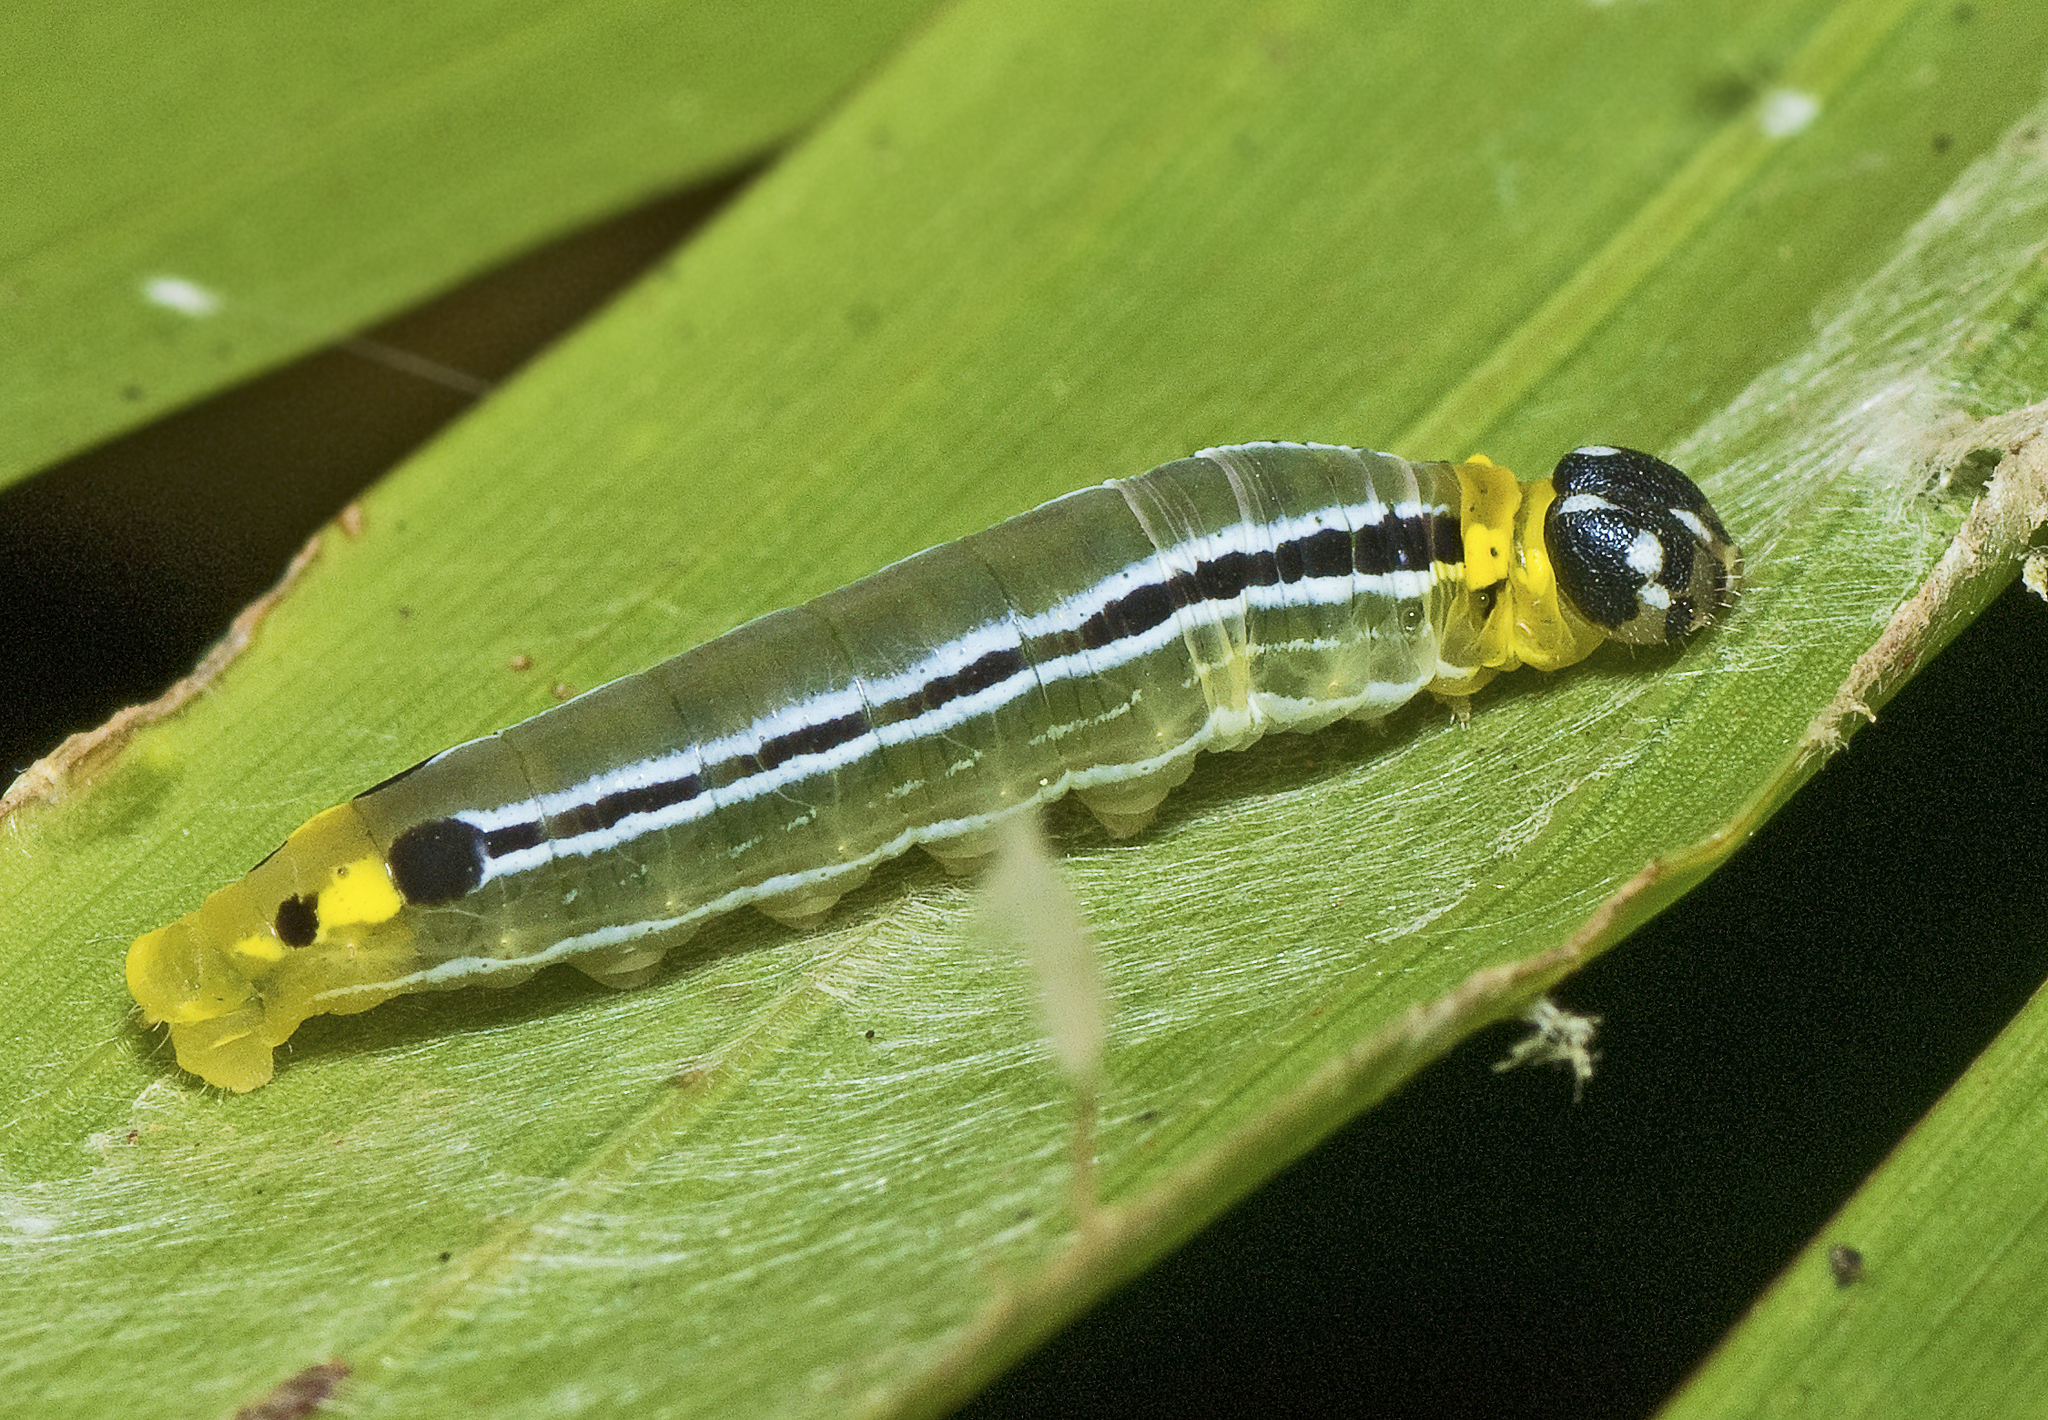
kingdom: Animalia
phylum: Arthropoda
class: Insecta
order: Lepidoptera
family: Hesperiidae
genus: Euschemon
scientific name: Euschemon rafflesia
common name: Regent skipper
